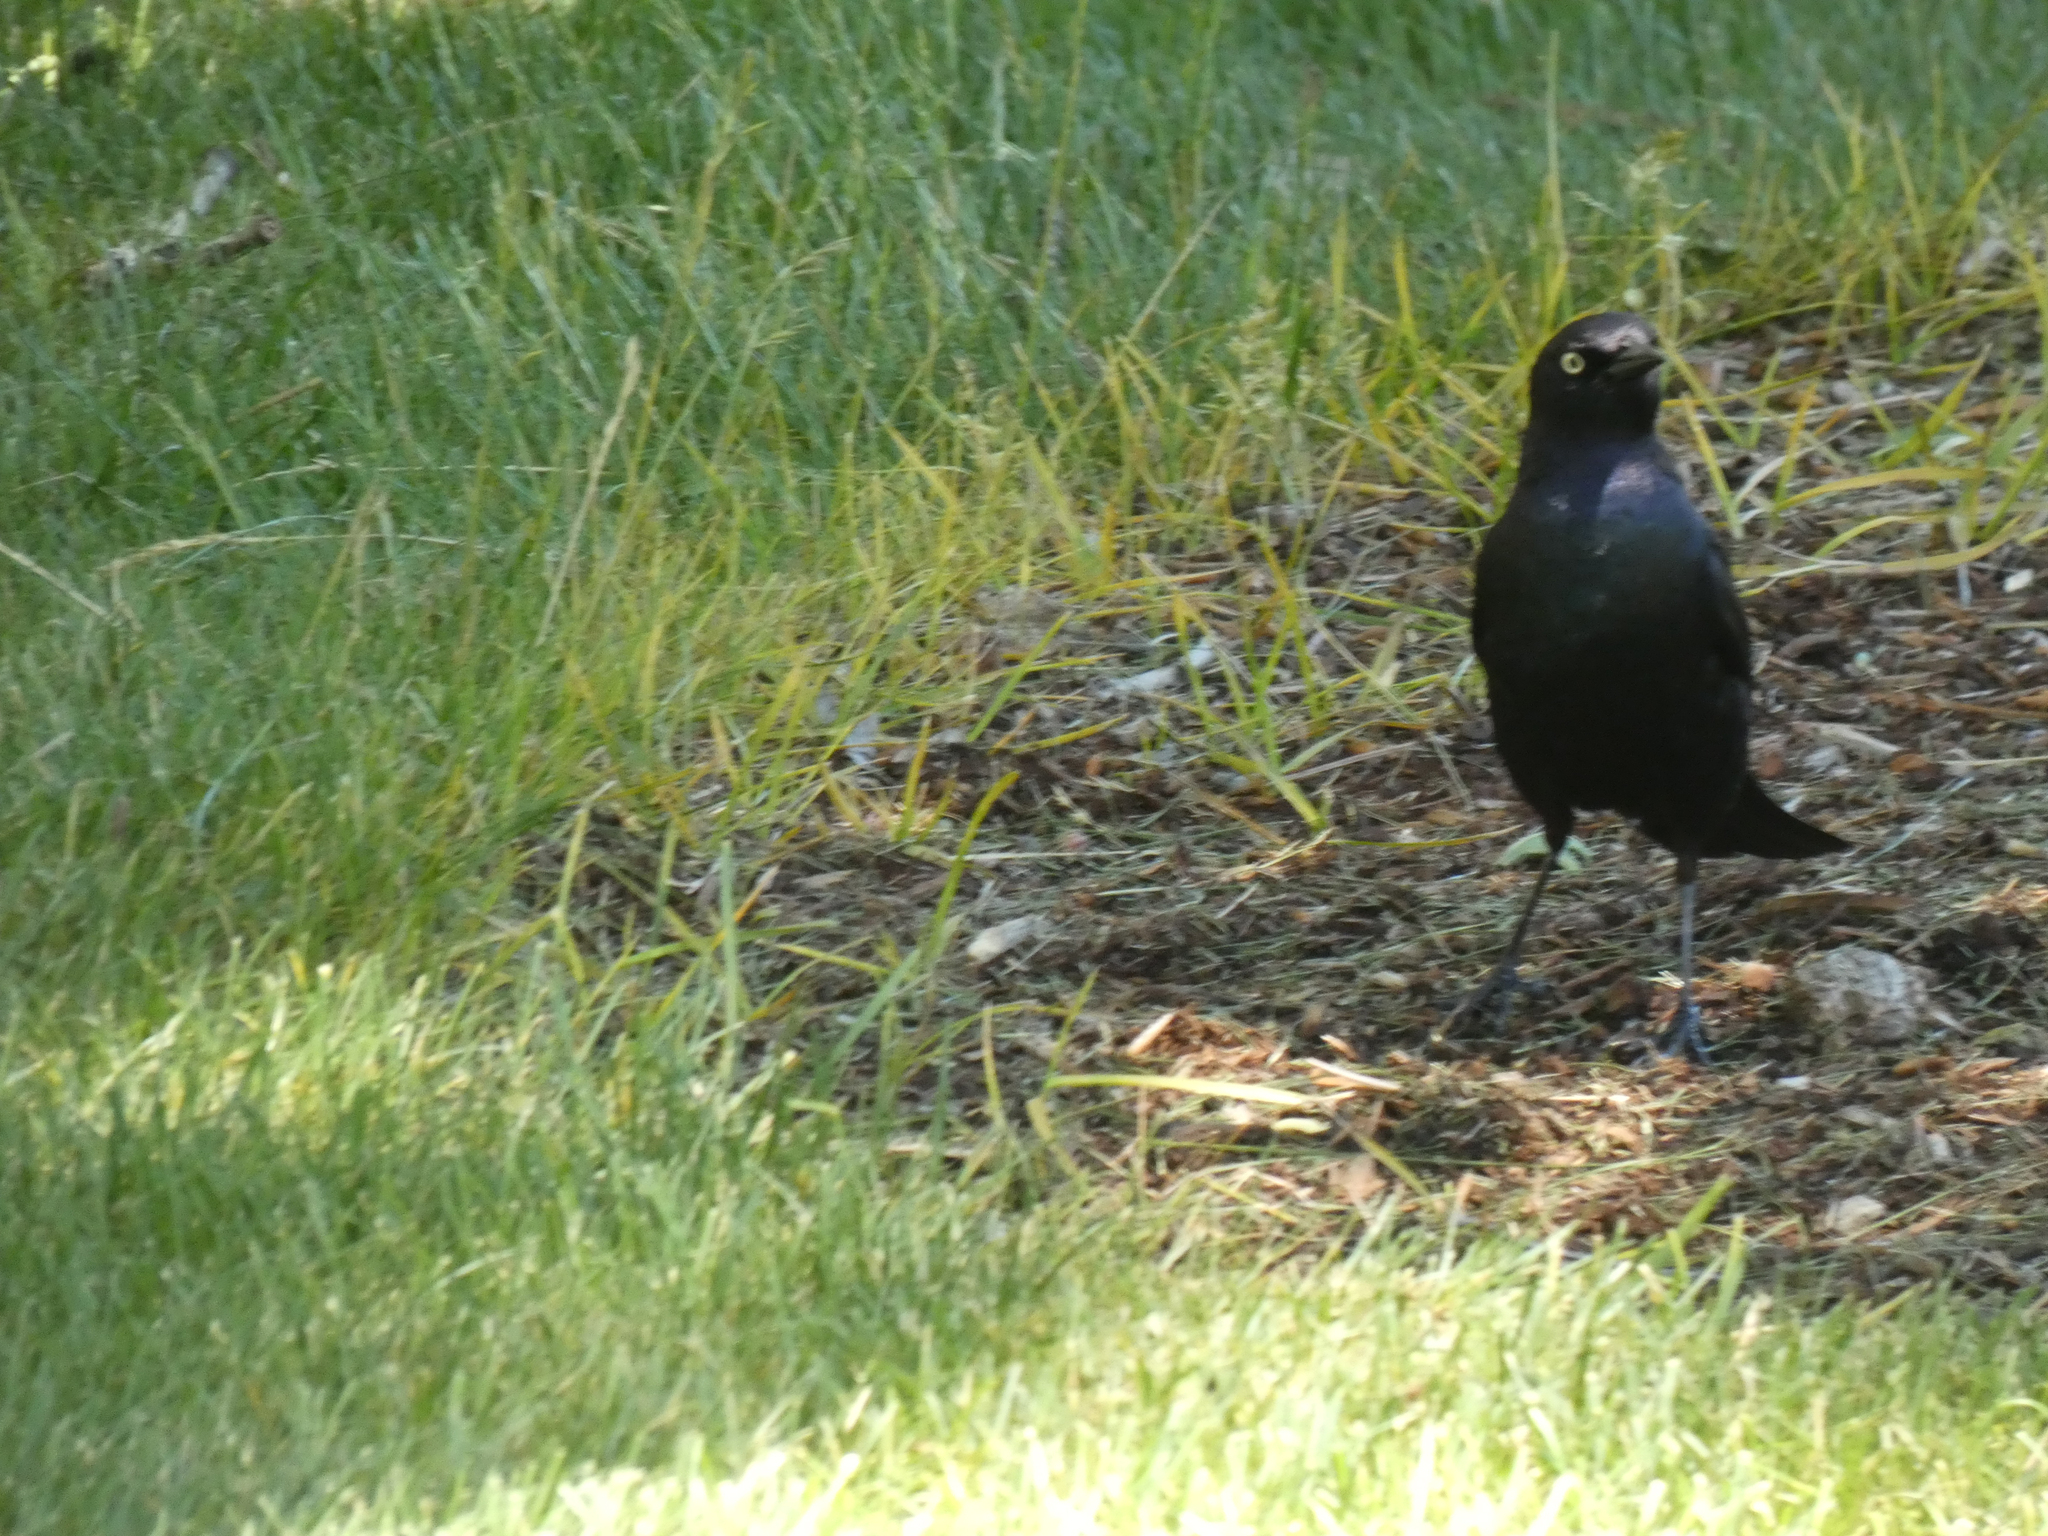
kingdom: Animalia
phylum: Chordata
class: Aves
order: Passeriformes
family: Icteridae
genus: Euphagus
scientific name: Euphagus cyanocephalus
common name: Brewer's blackbird
